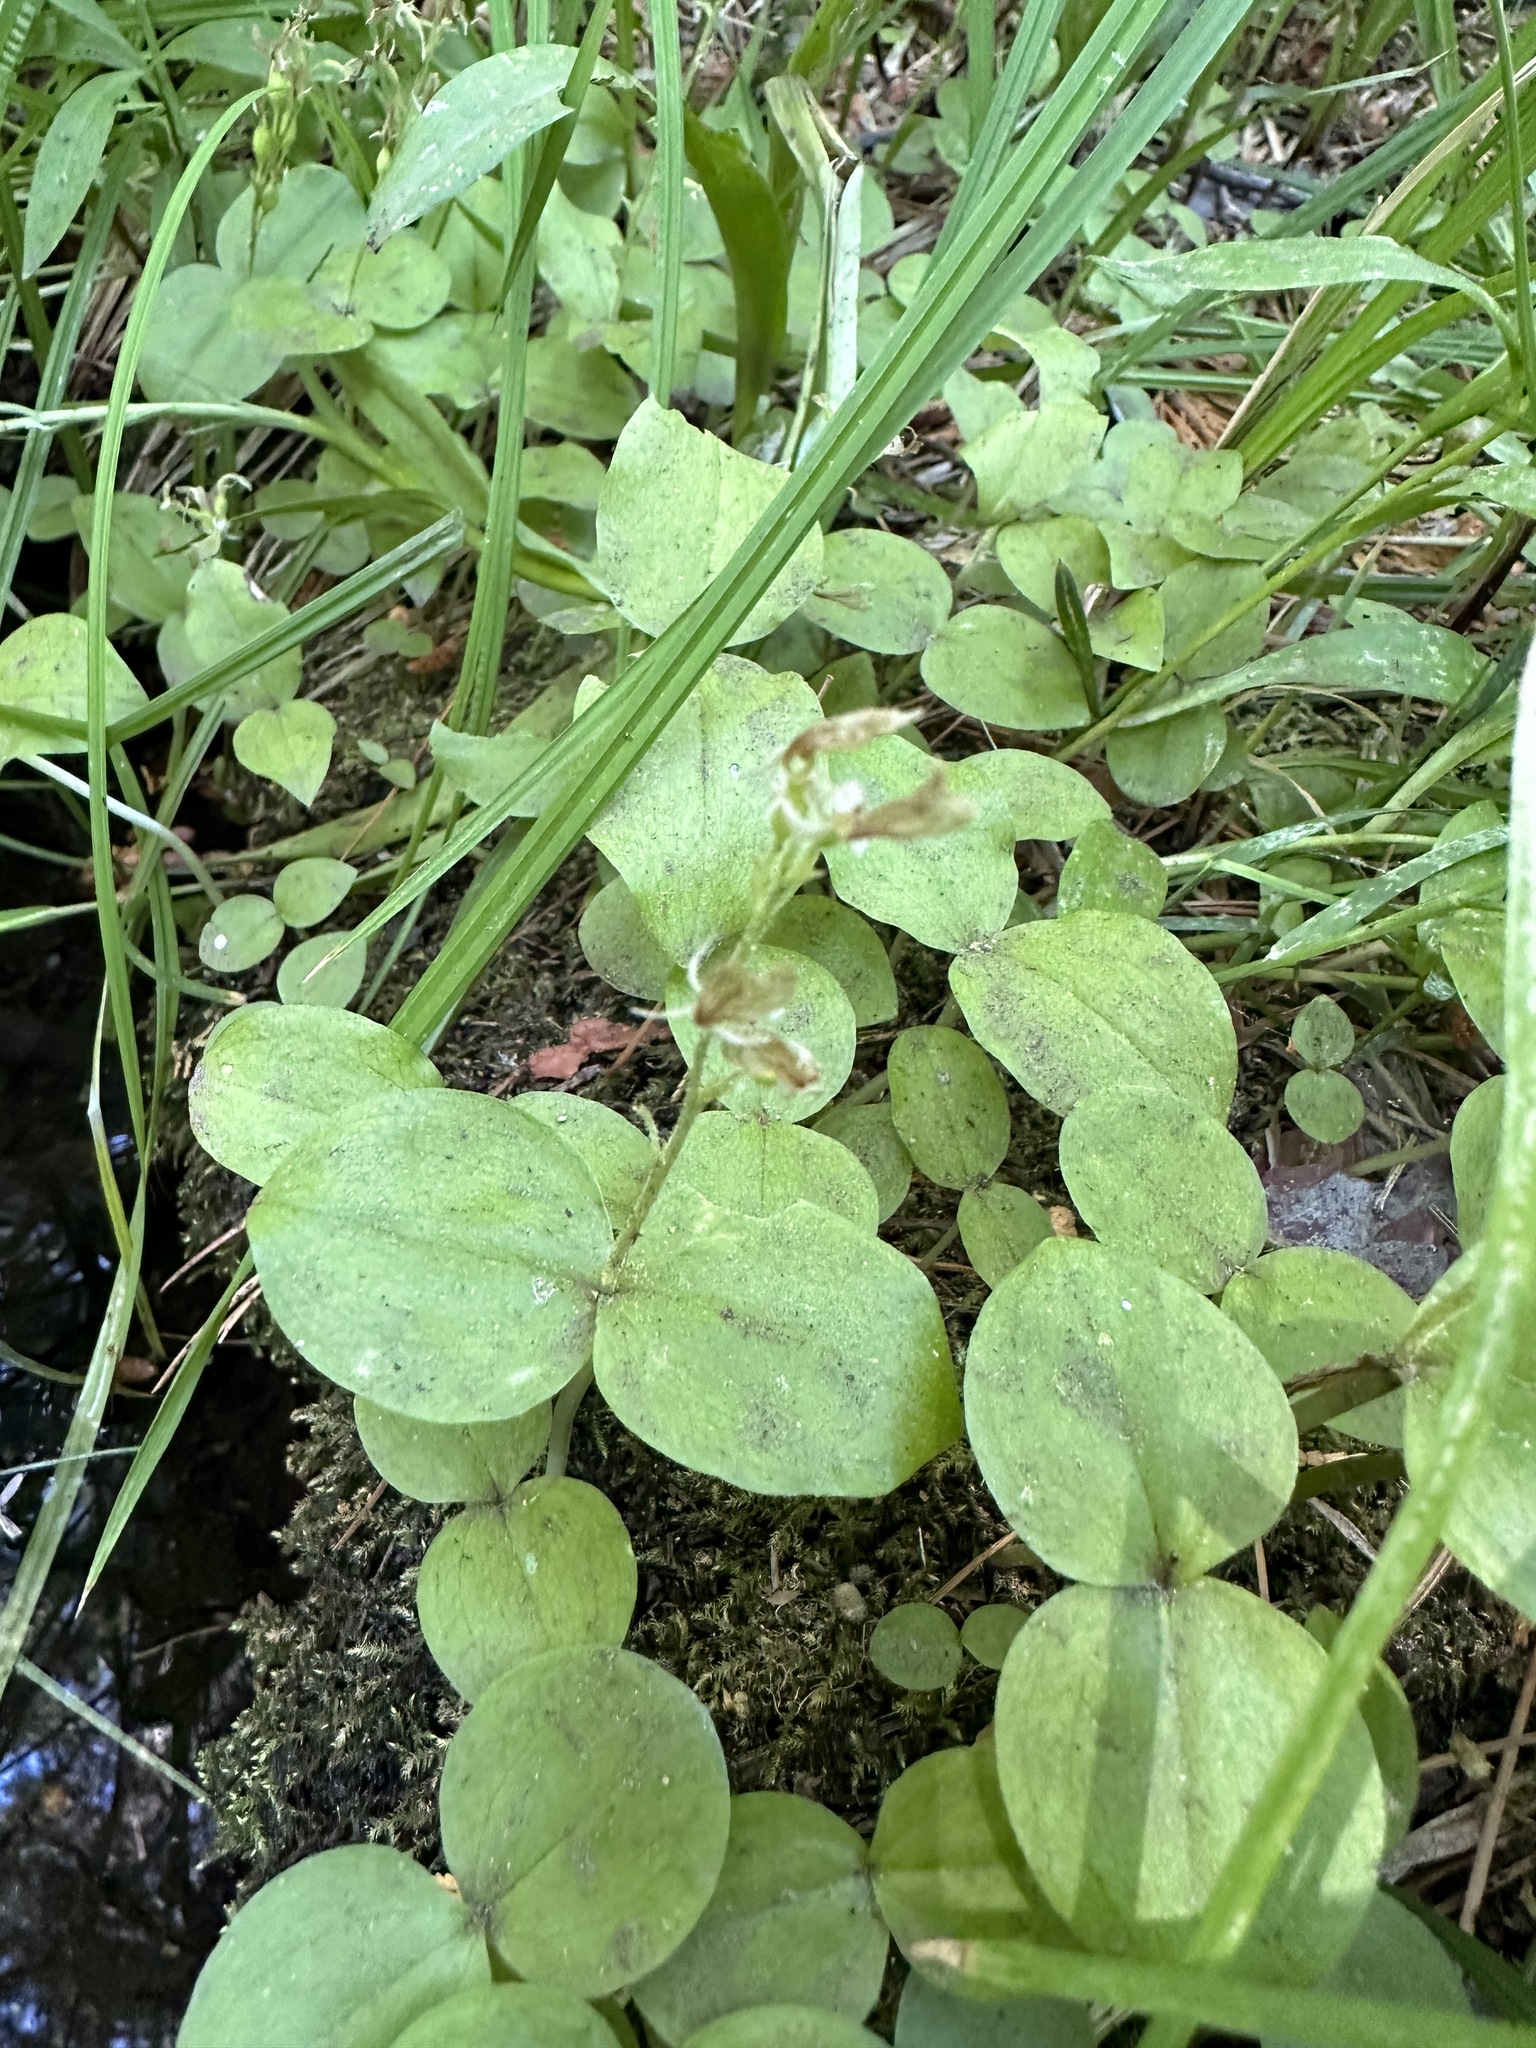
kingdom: Plantae
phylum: Tracheophyta
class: Liliopsida
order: Asparagales
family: Orchidaceae
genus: Neottia
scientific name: Neottia convallarioides
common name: Broadleaf twayblade
